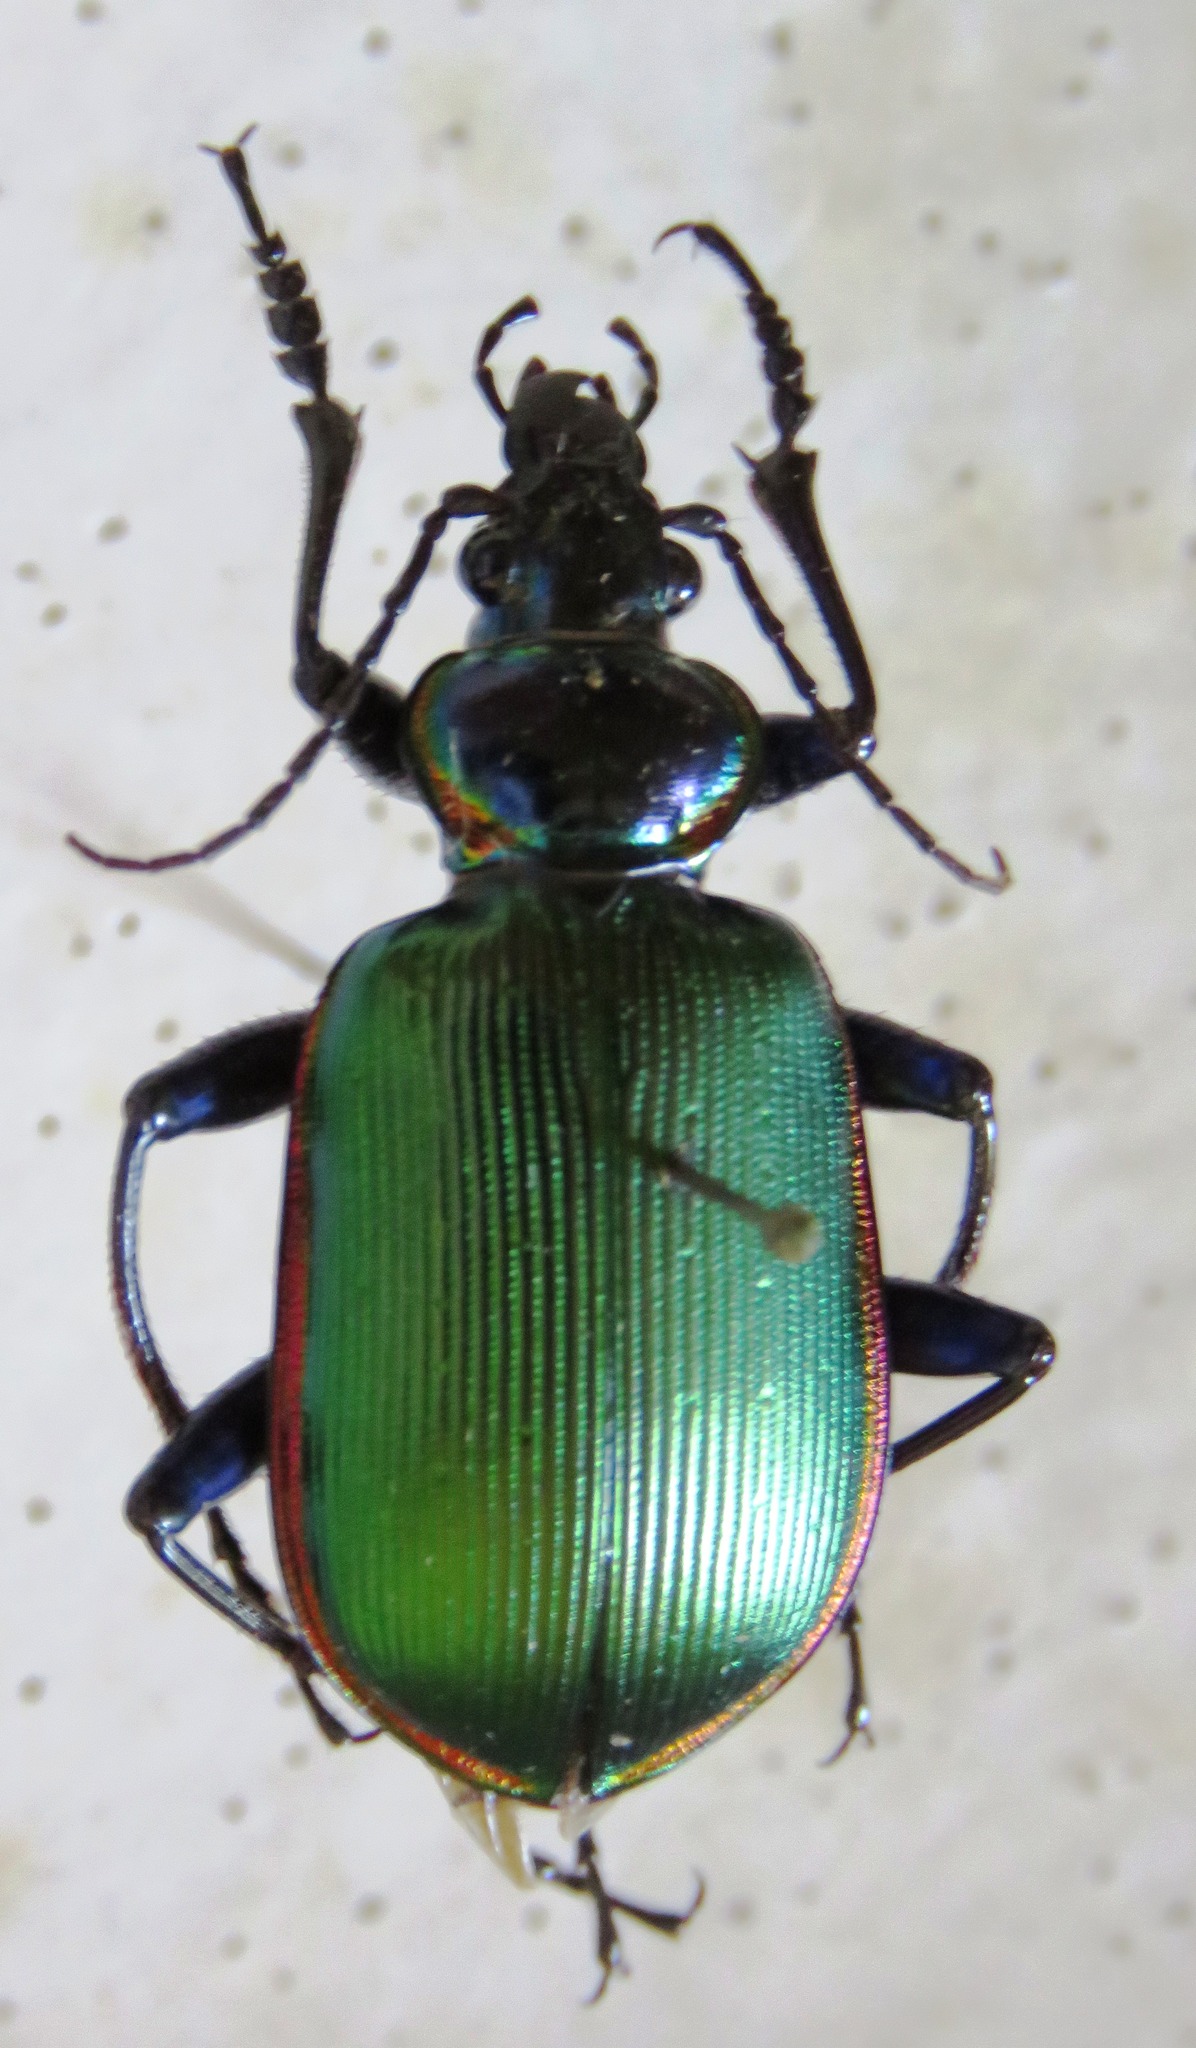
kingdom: Animalia
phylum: Arthropoda
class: Insecta
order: Coleoptera
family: Carabidae
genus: Calosoma
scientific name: Calosoma scrutator
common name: Fiery searcher beetle
